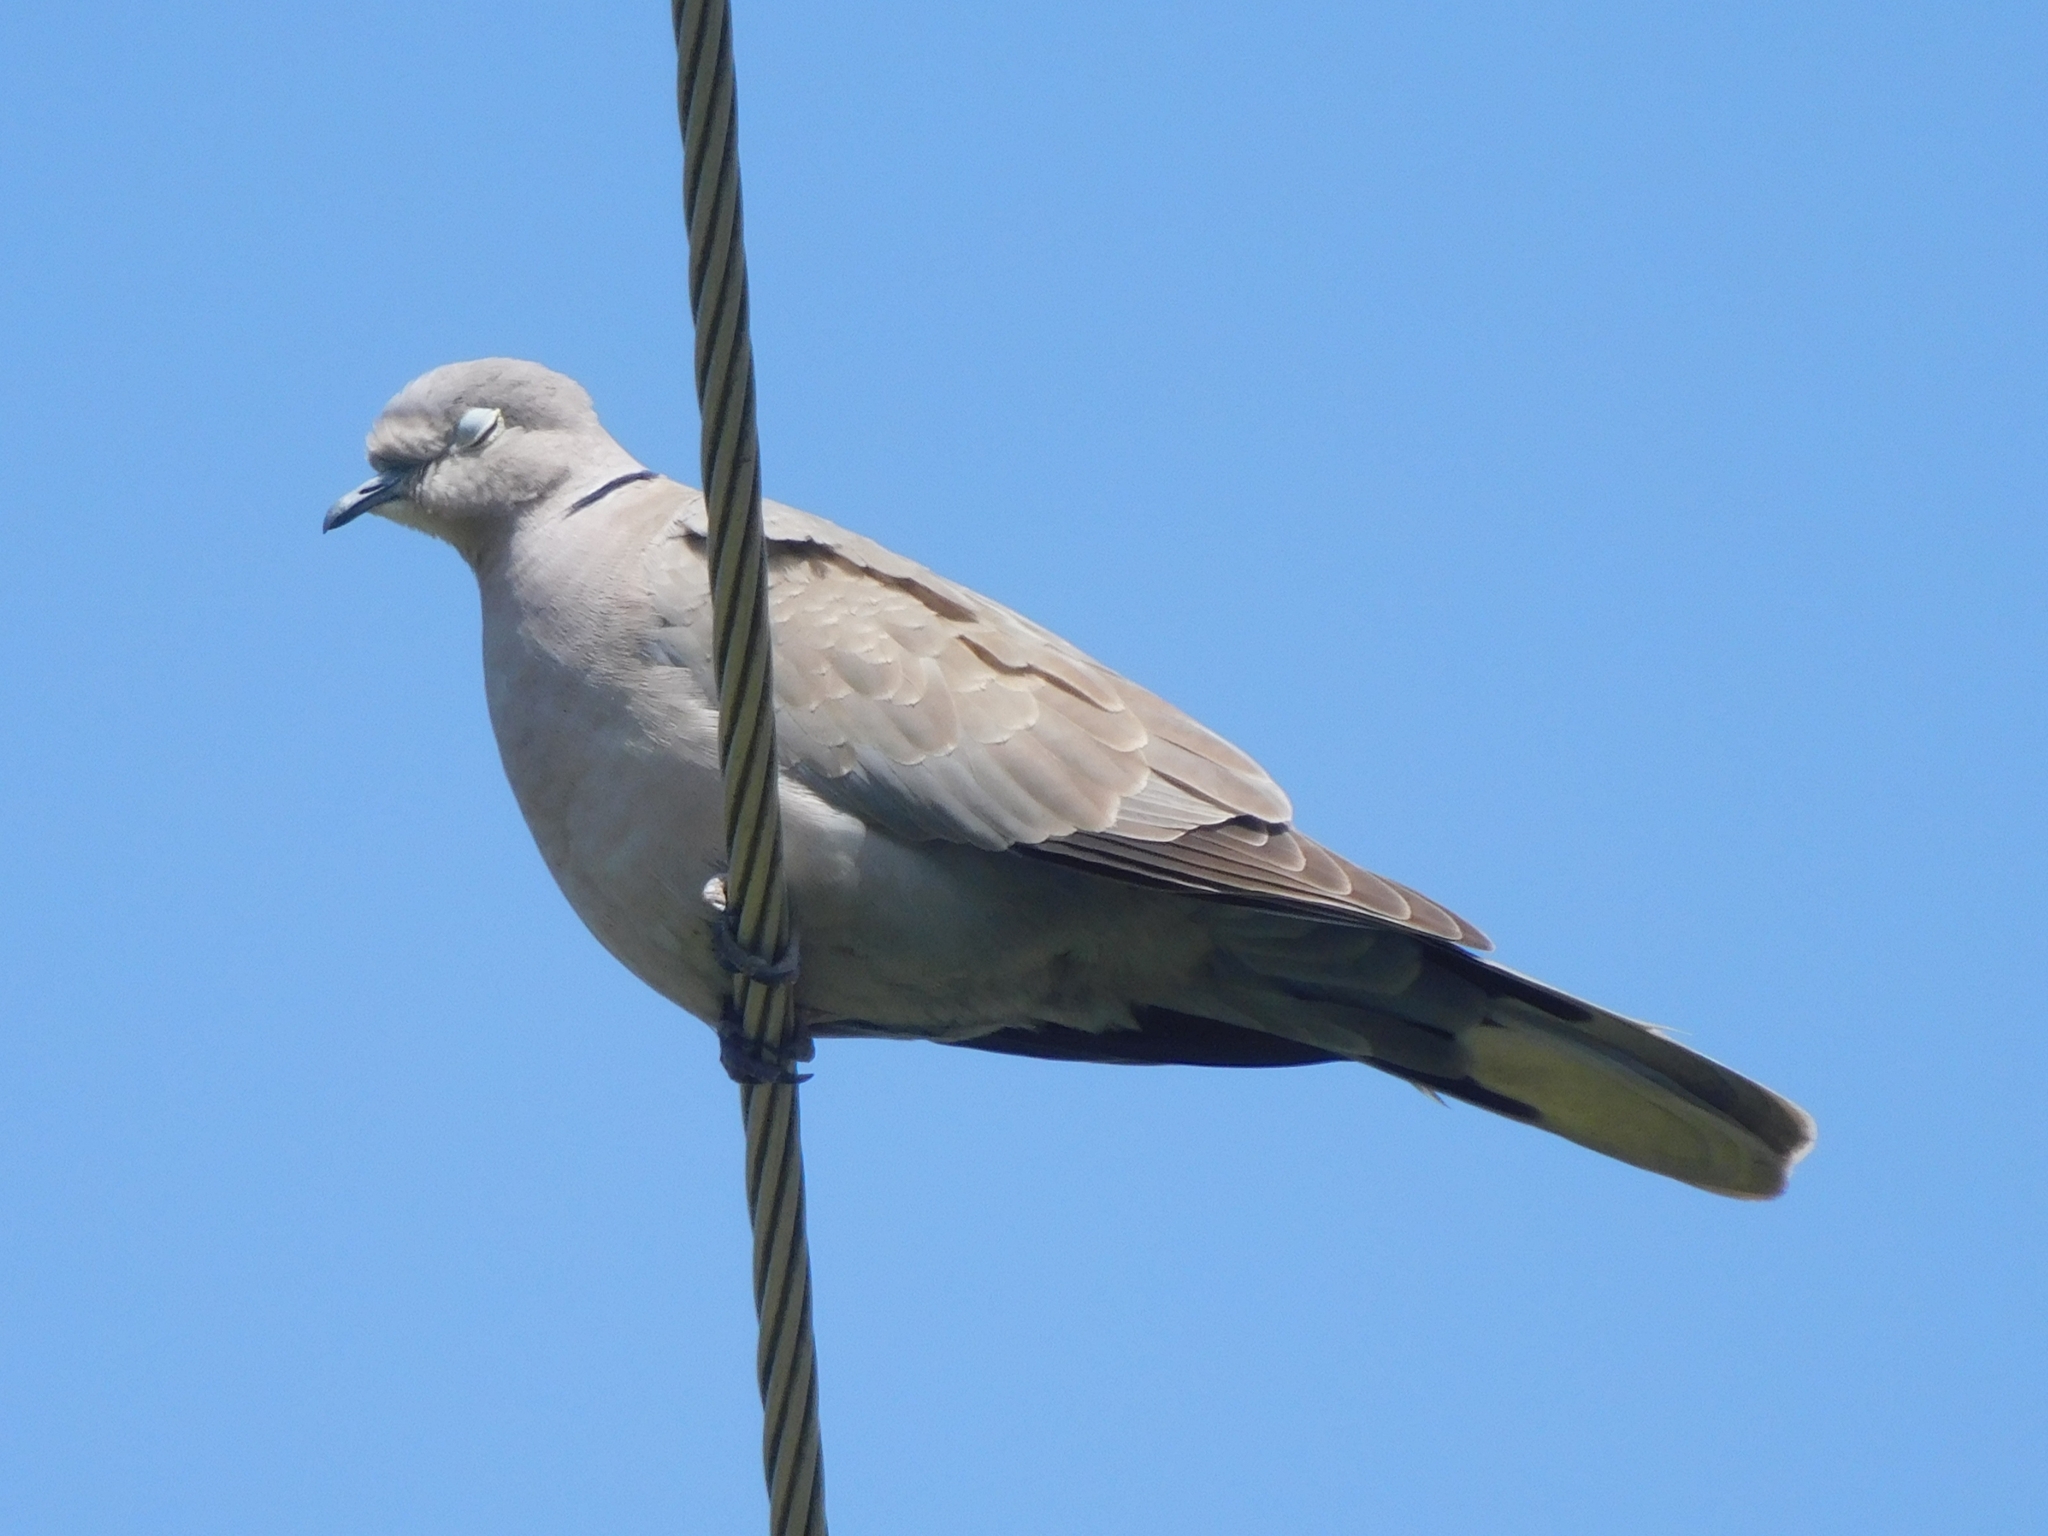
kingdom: Animalia
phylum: Chordata
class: Aves
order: Columbiformes
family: Columbidae
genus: Streptopelia
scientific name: Streptopelia decaocto
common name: Eurasian collared dove
